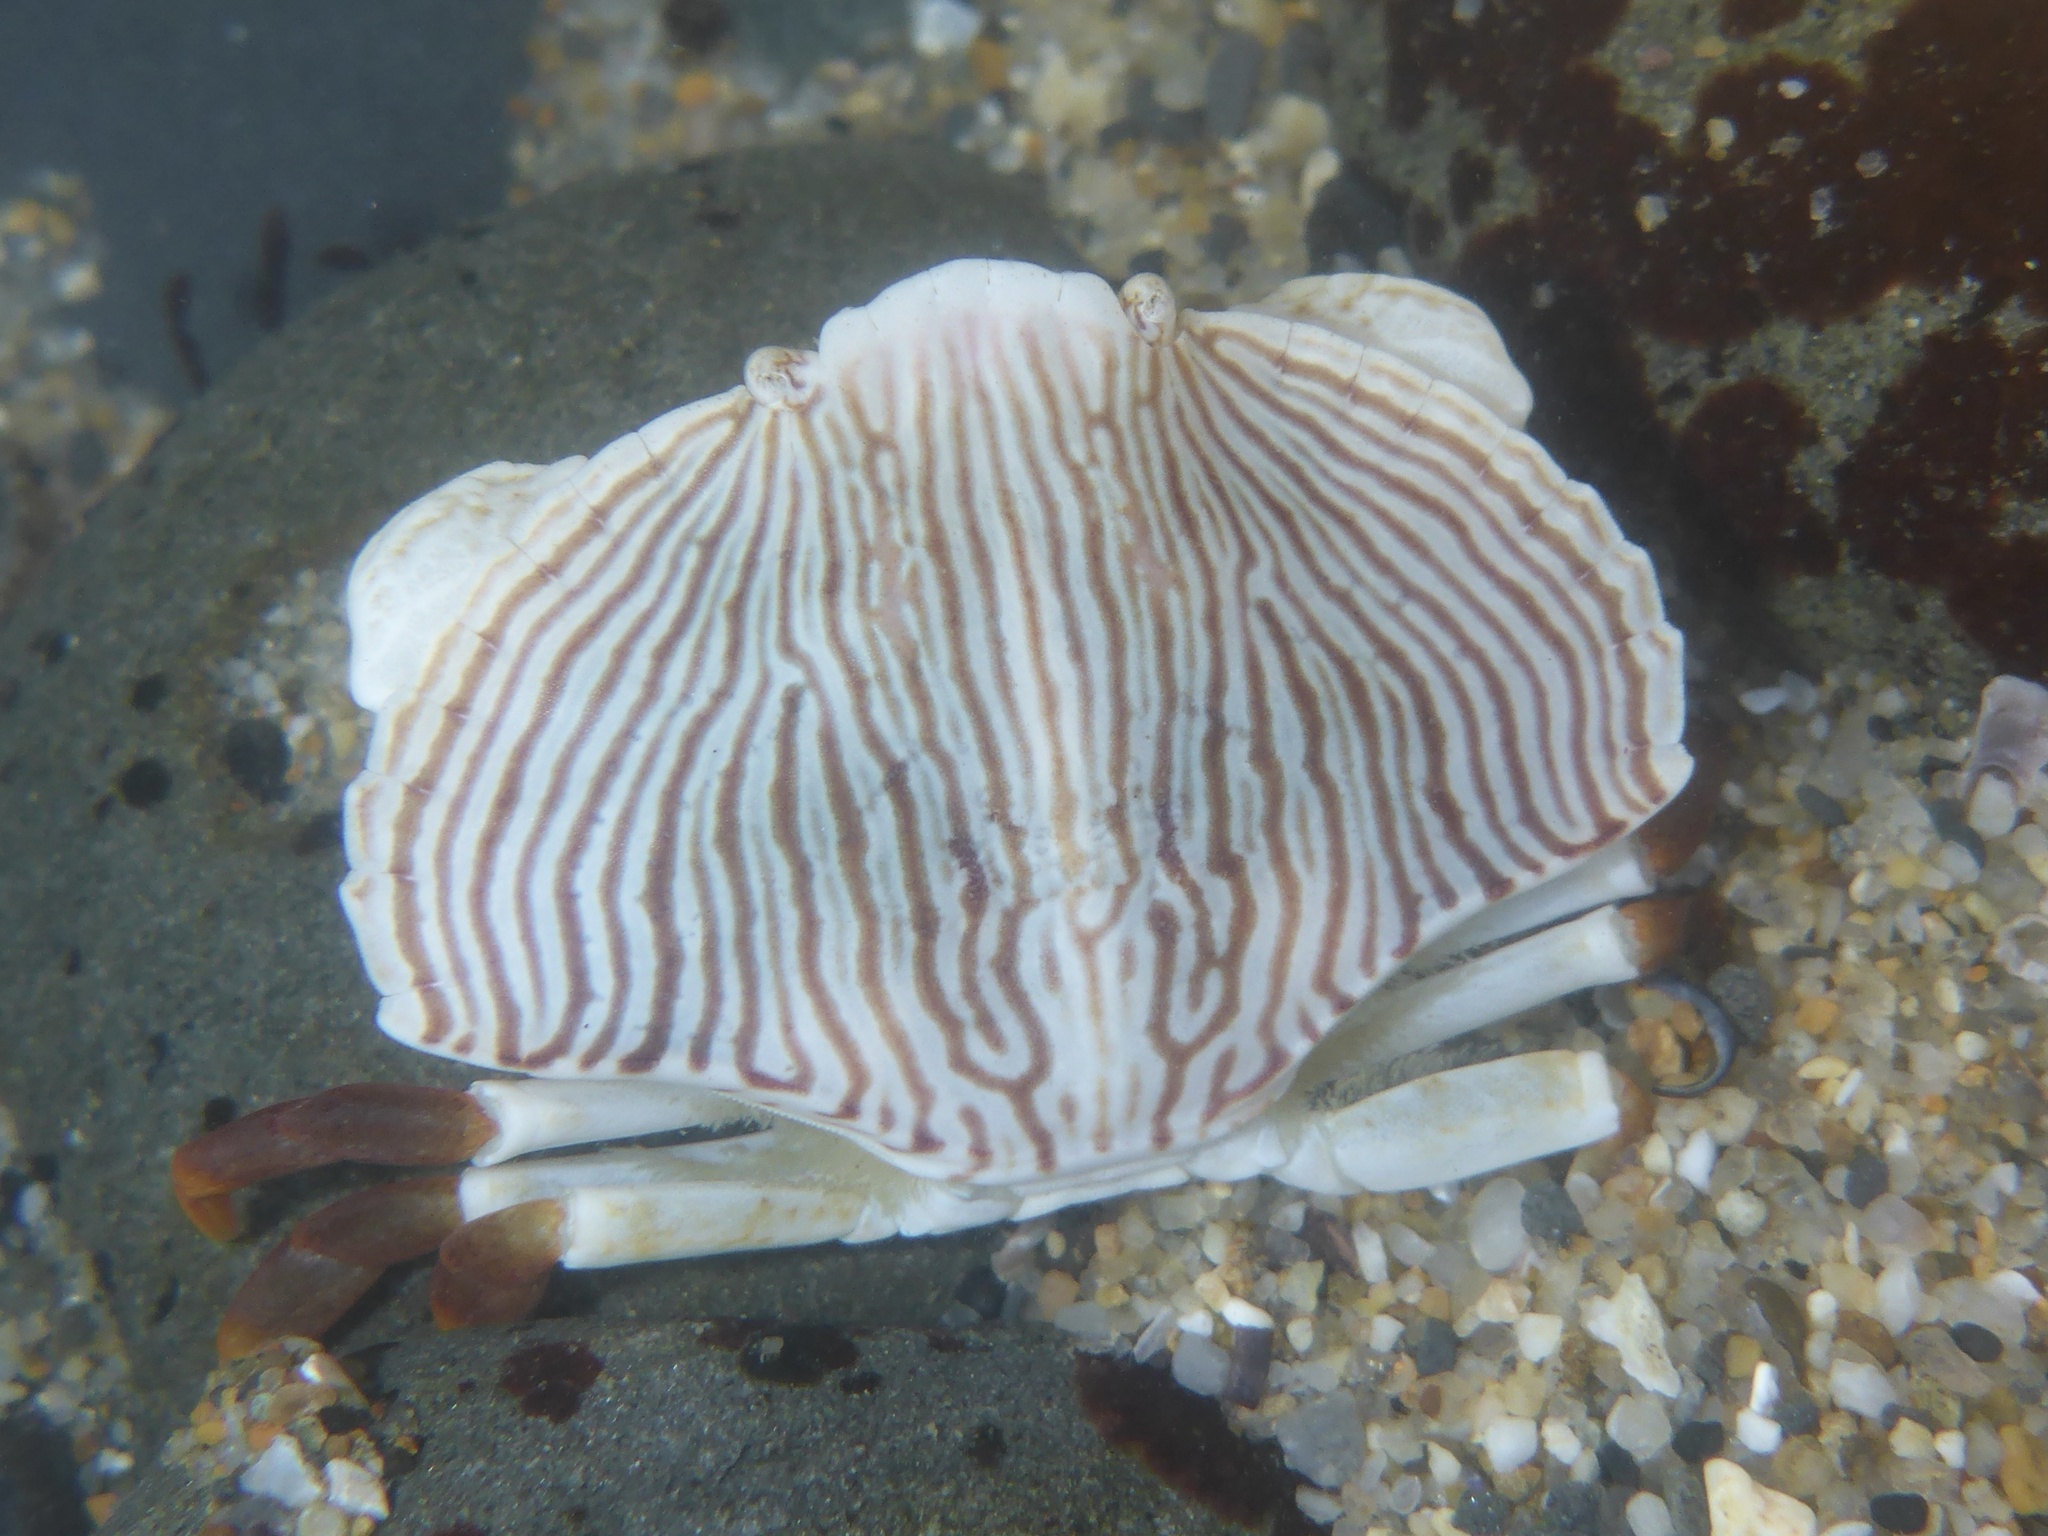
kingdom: Animalia
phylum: Arthropoda
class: Malacostraca
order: Decapoda
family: Cancridae
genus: Cancer
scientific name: Cancer productus
